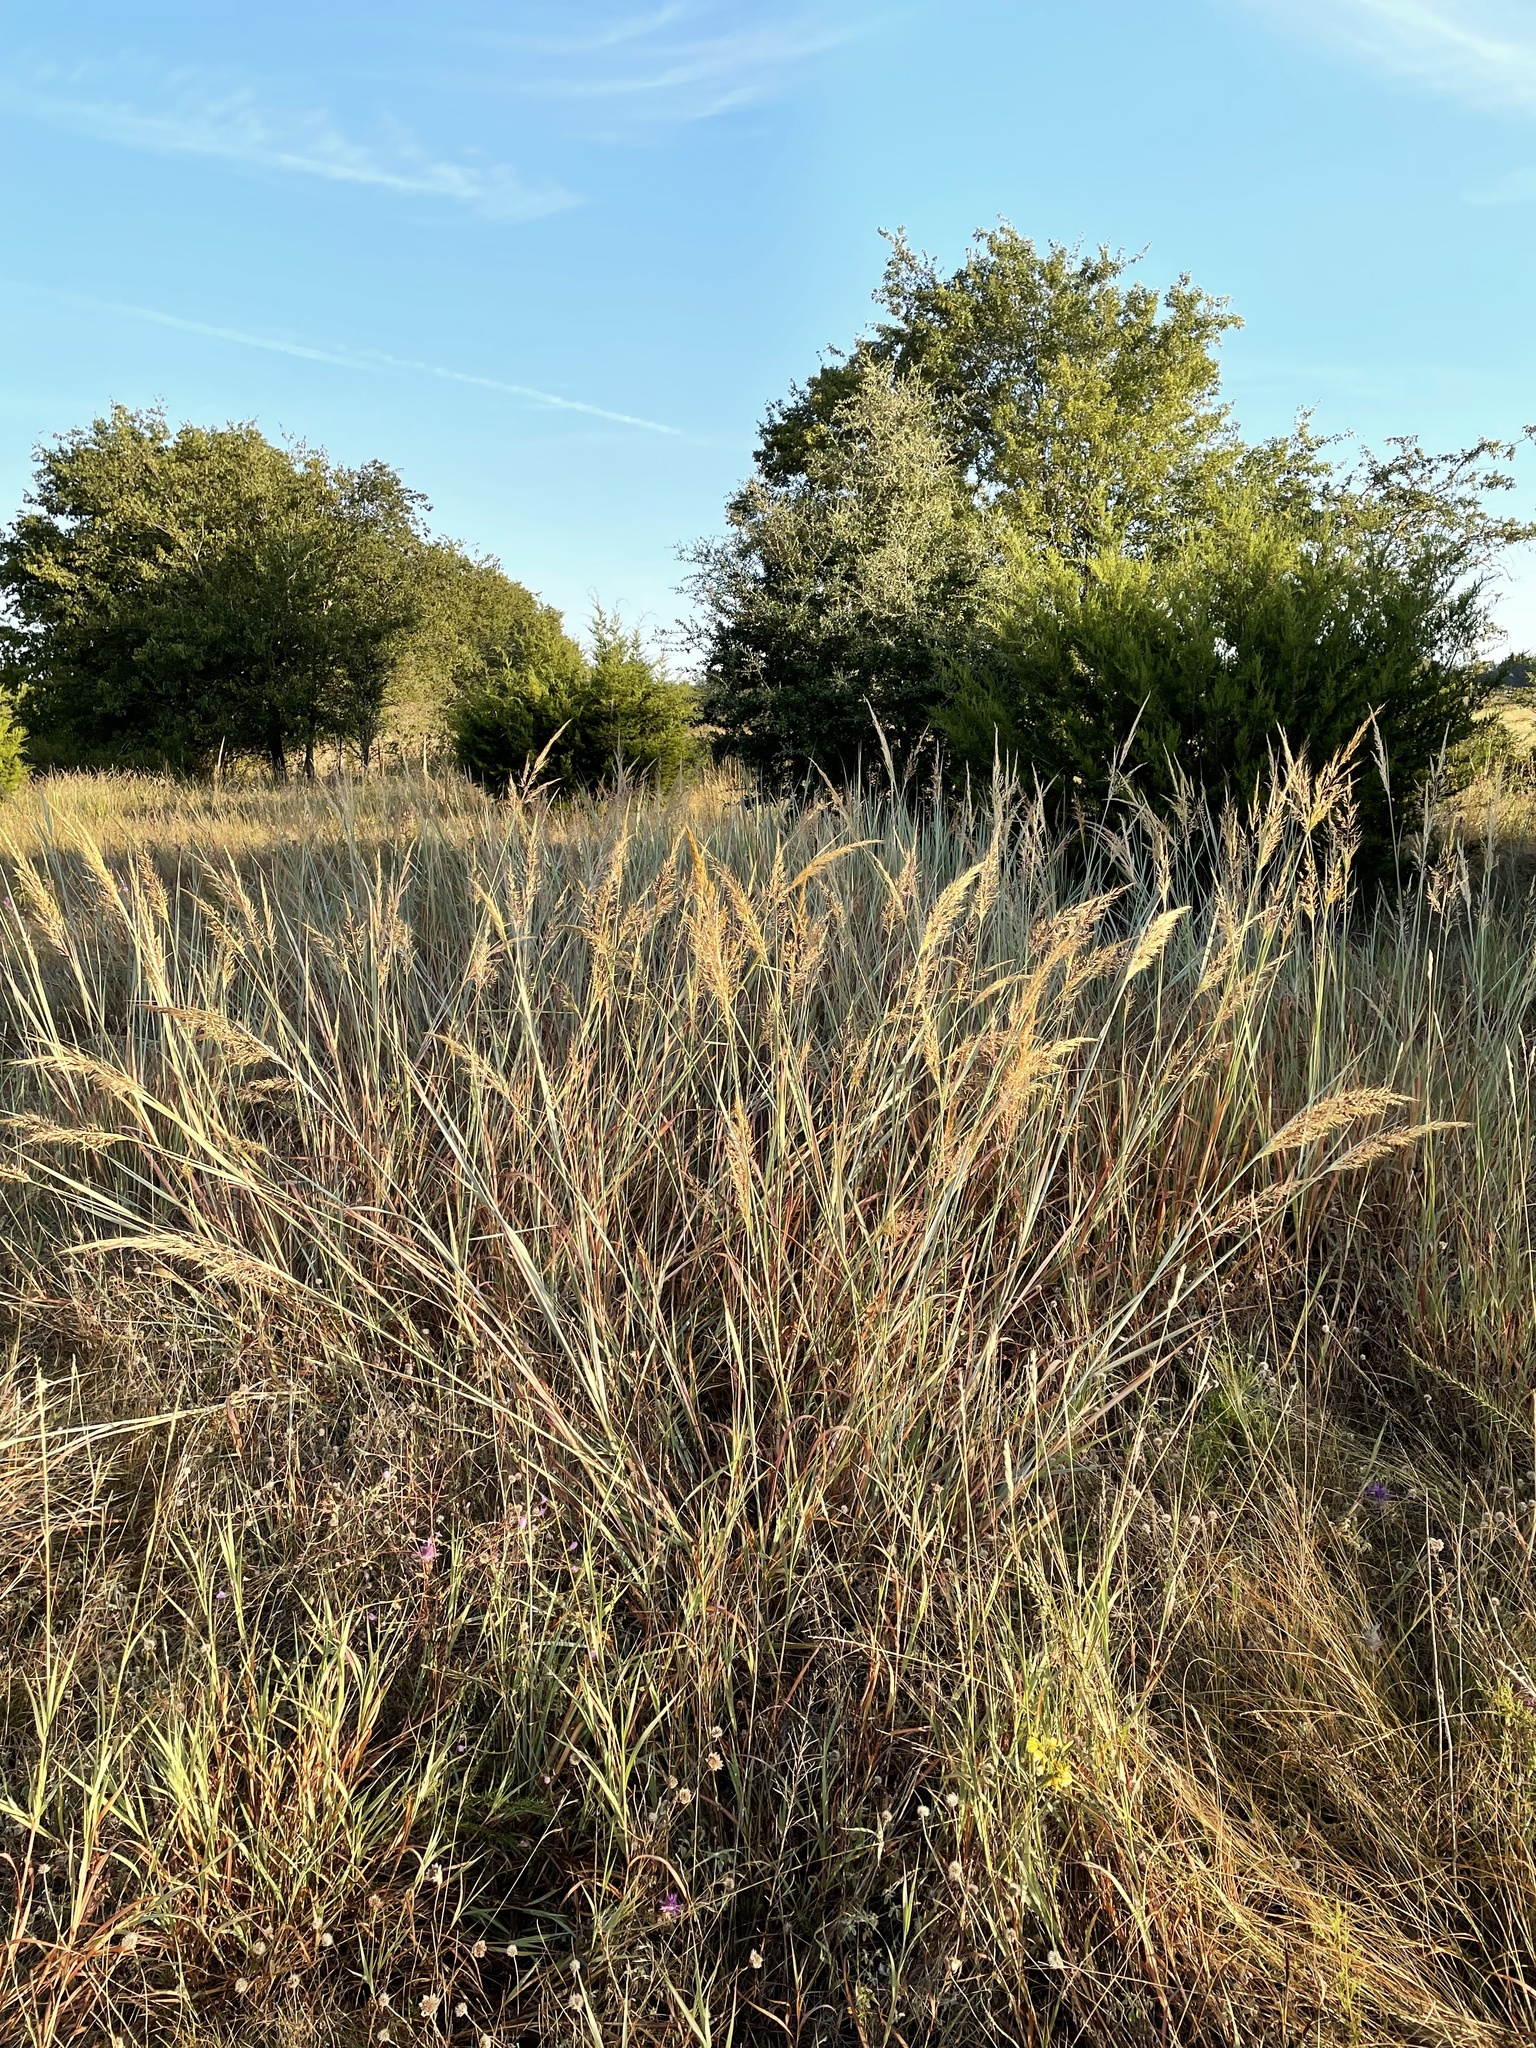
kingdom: Plantae
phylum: Tracheophyta
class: Liliopsida
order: Poales
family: Poaceae
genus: Sorghastrum
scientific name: Sorghastrum nutans
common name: Indian grass
